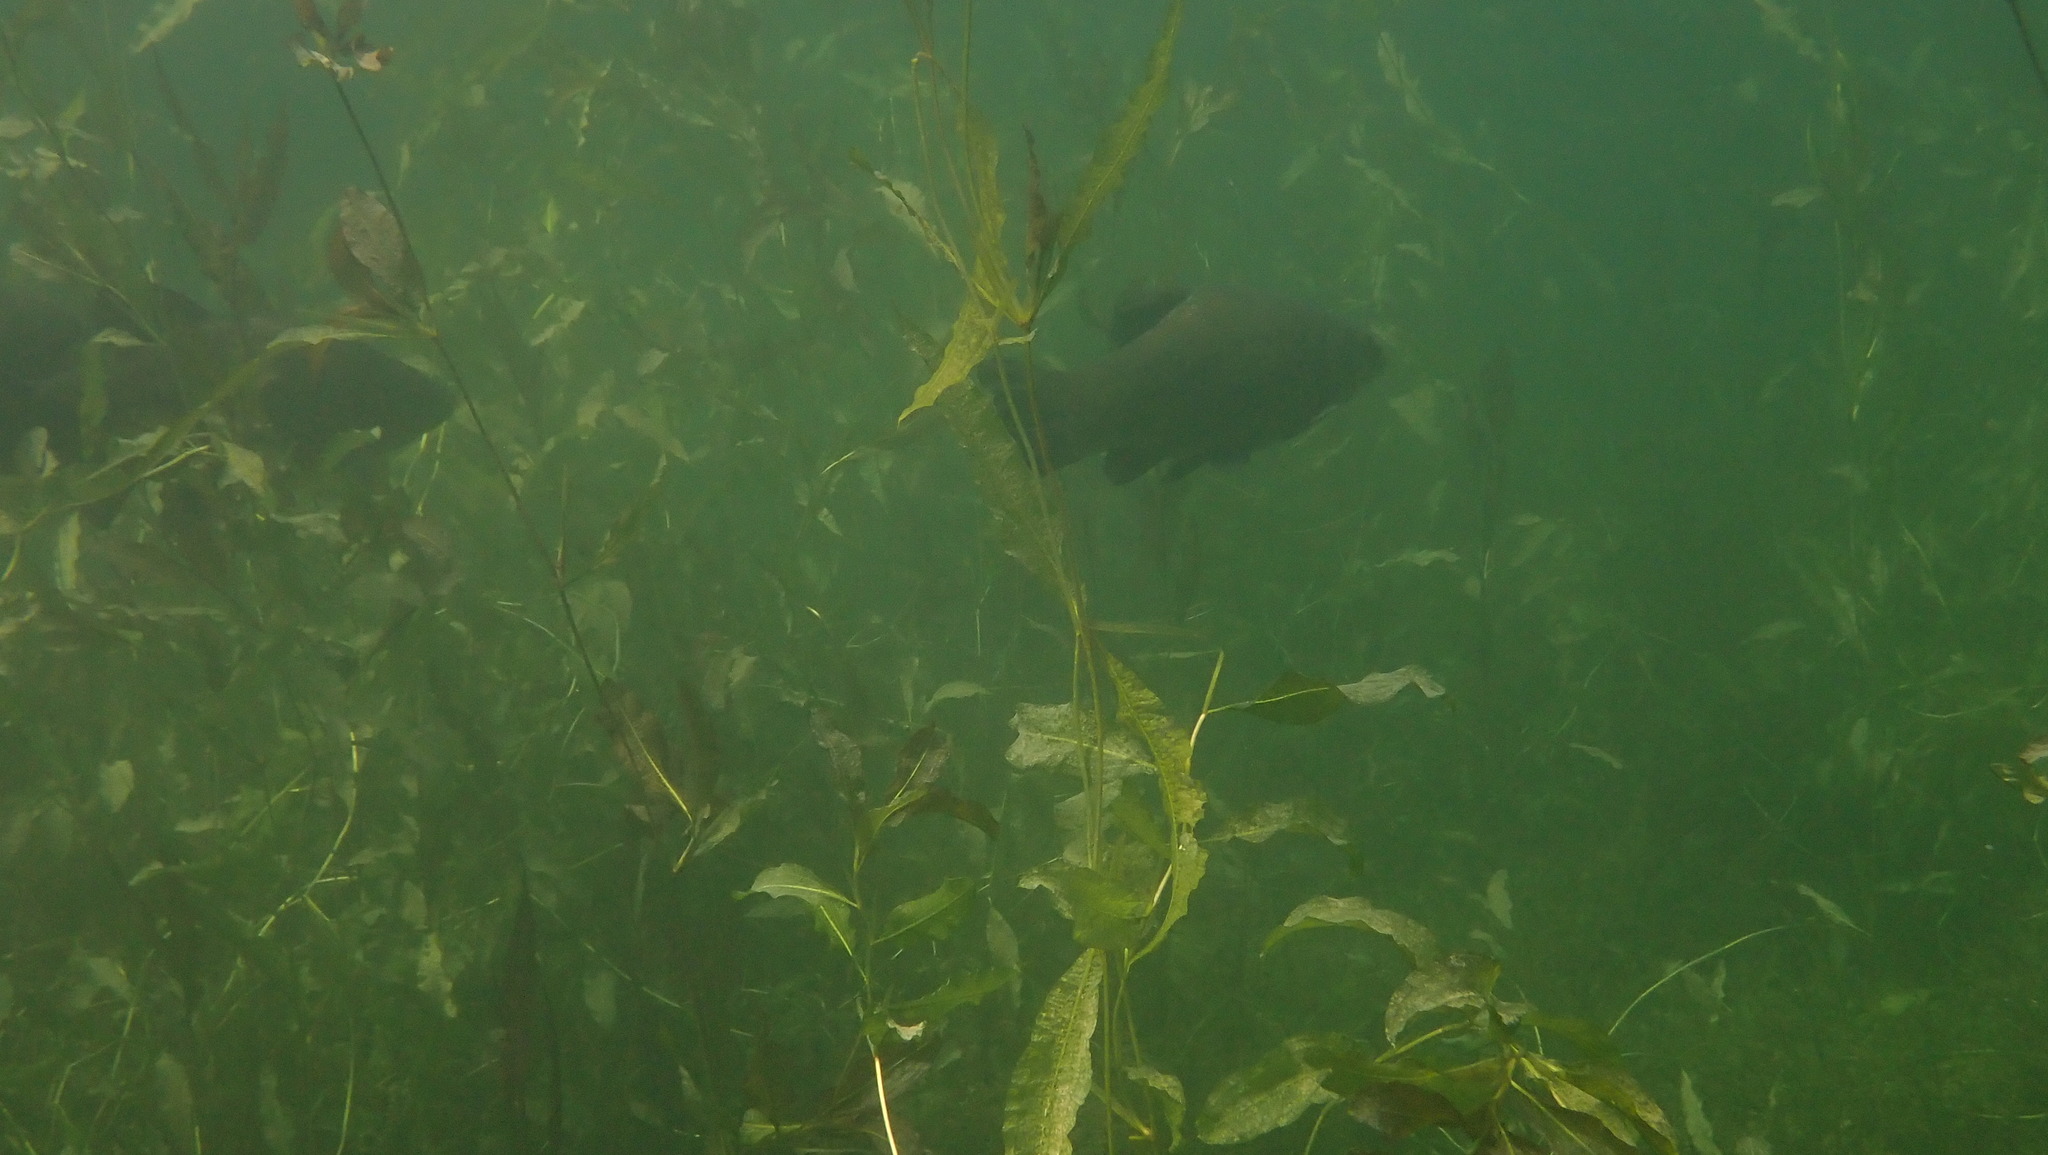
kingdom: Animalia
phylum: Chordata
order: Cypriniformes
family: Cyprinidae
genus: Tinca
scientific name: Tinca tinca
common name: Tench
